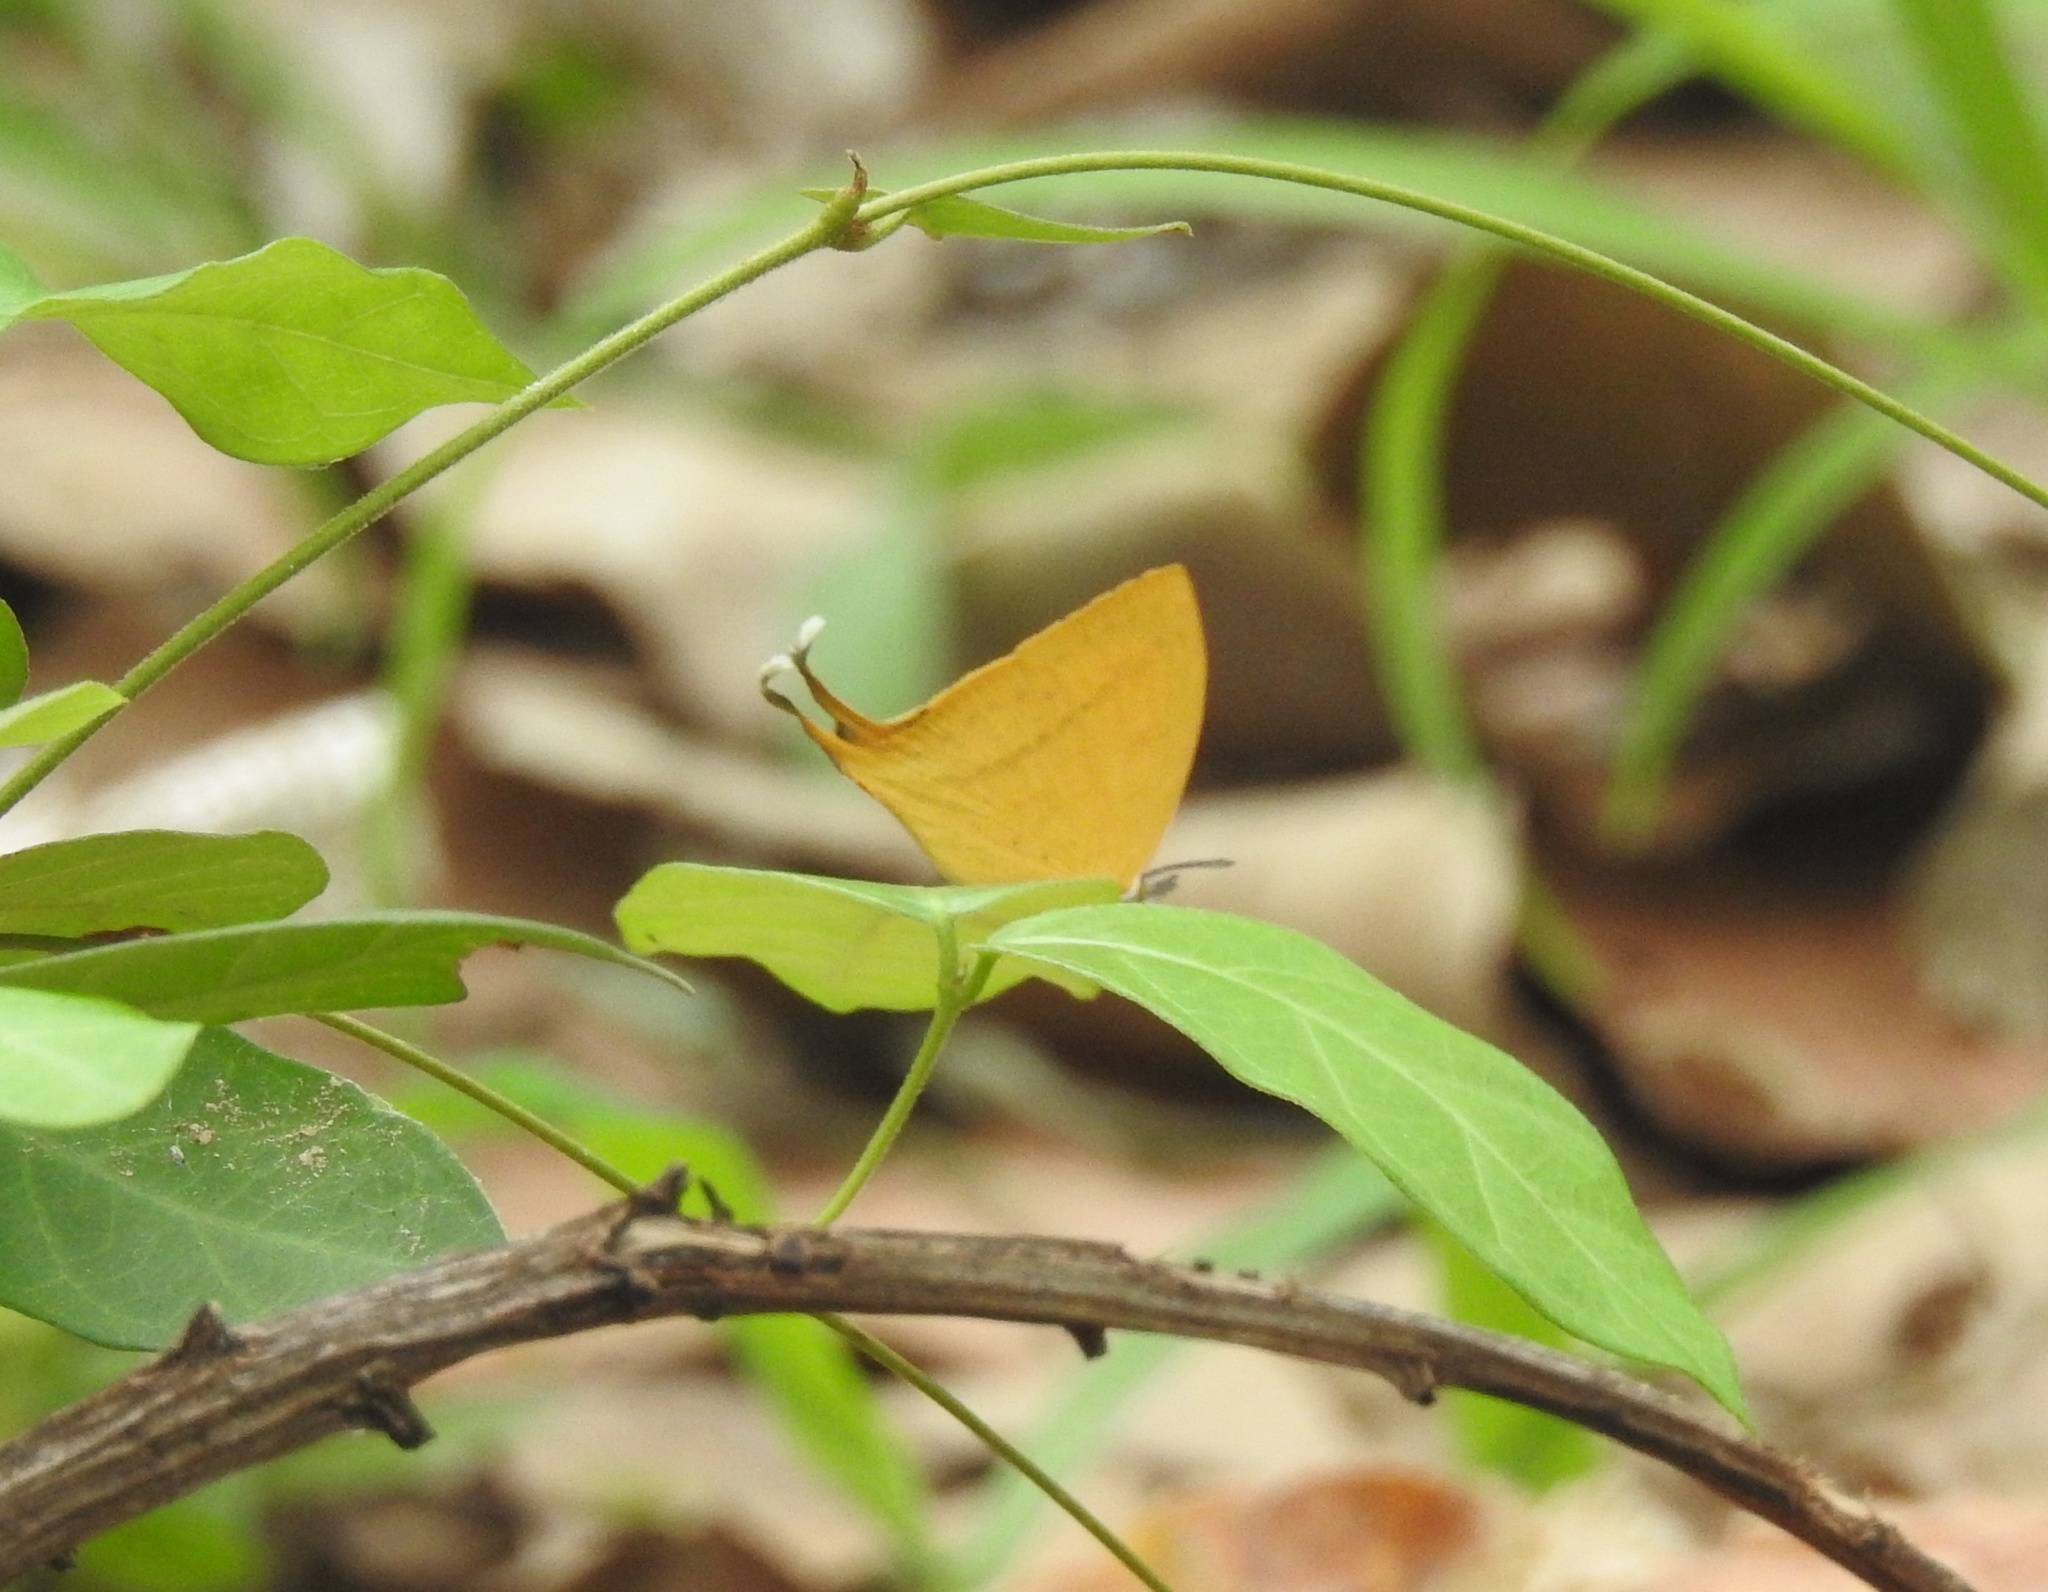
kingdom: Animalia
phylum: Arthropoda
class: Insecta
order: Lepidoptera
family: Lycaenidae
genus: Loxura
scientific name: Loxura atymnus
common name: Common yamfly
